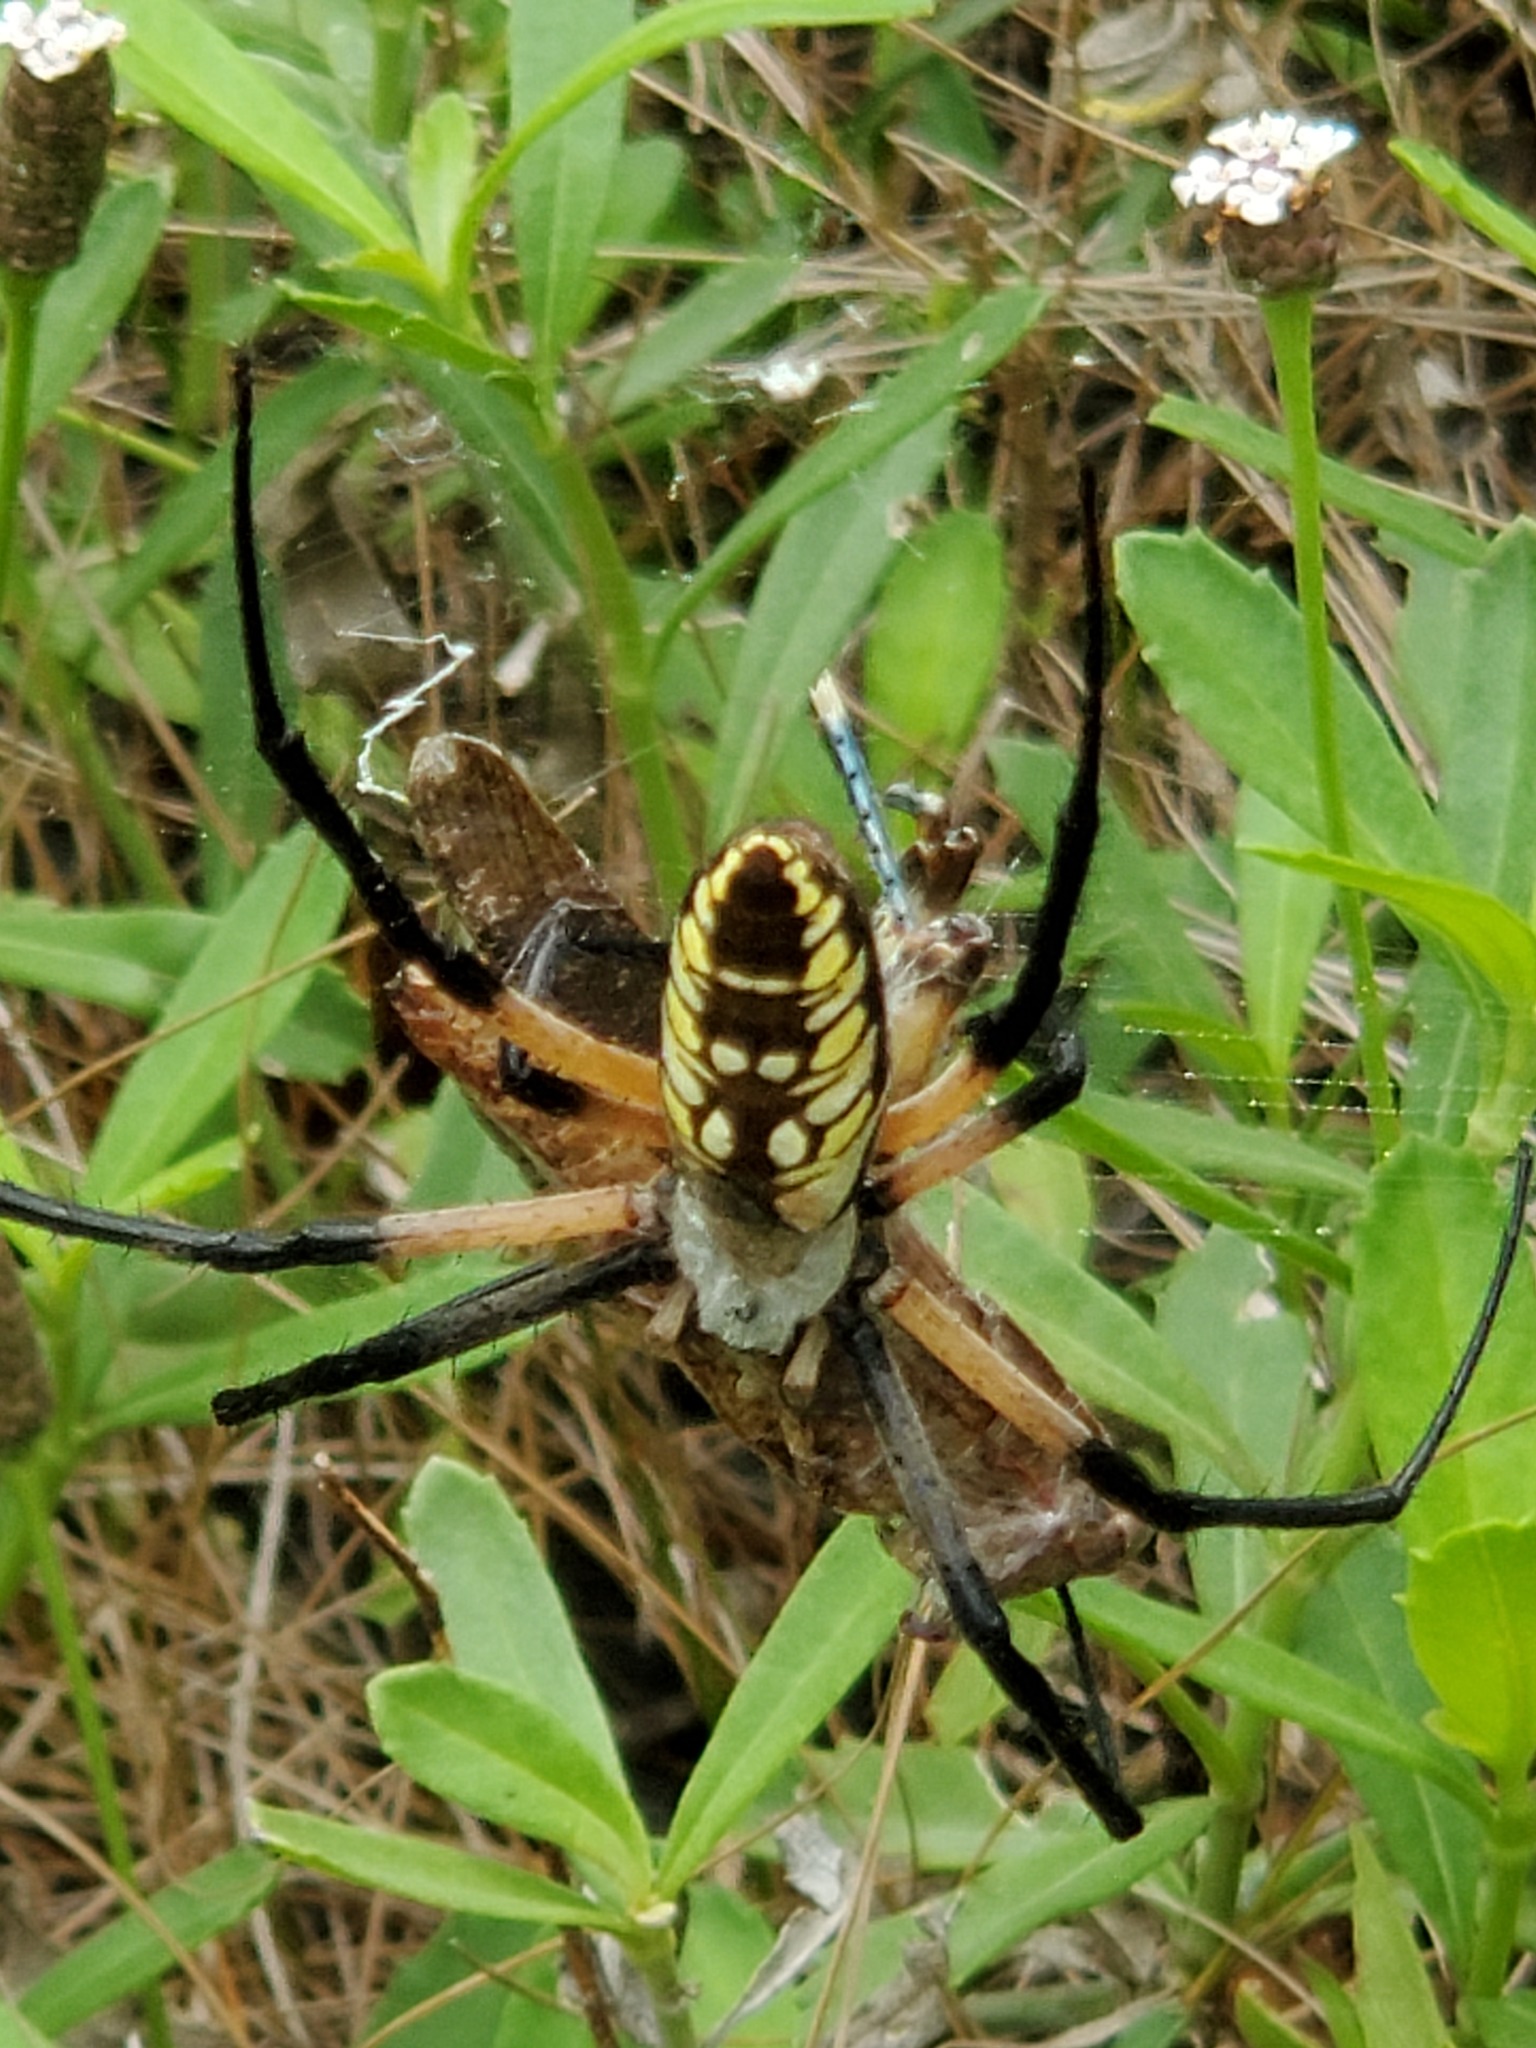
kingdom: Animalia
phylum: Arthropoda
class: Arachnida
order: Araneae
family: Araneidae
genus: Argiope
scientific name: Argiope aurantia
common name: Orb weavers
